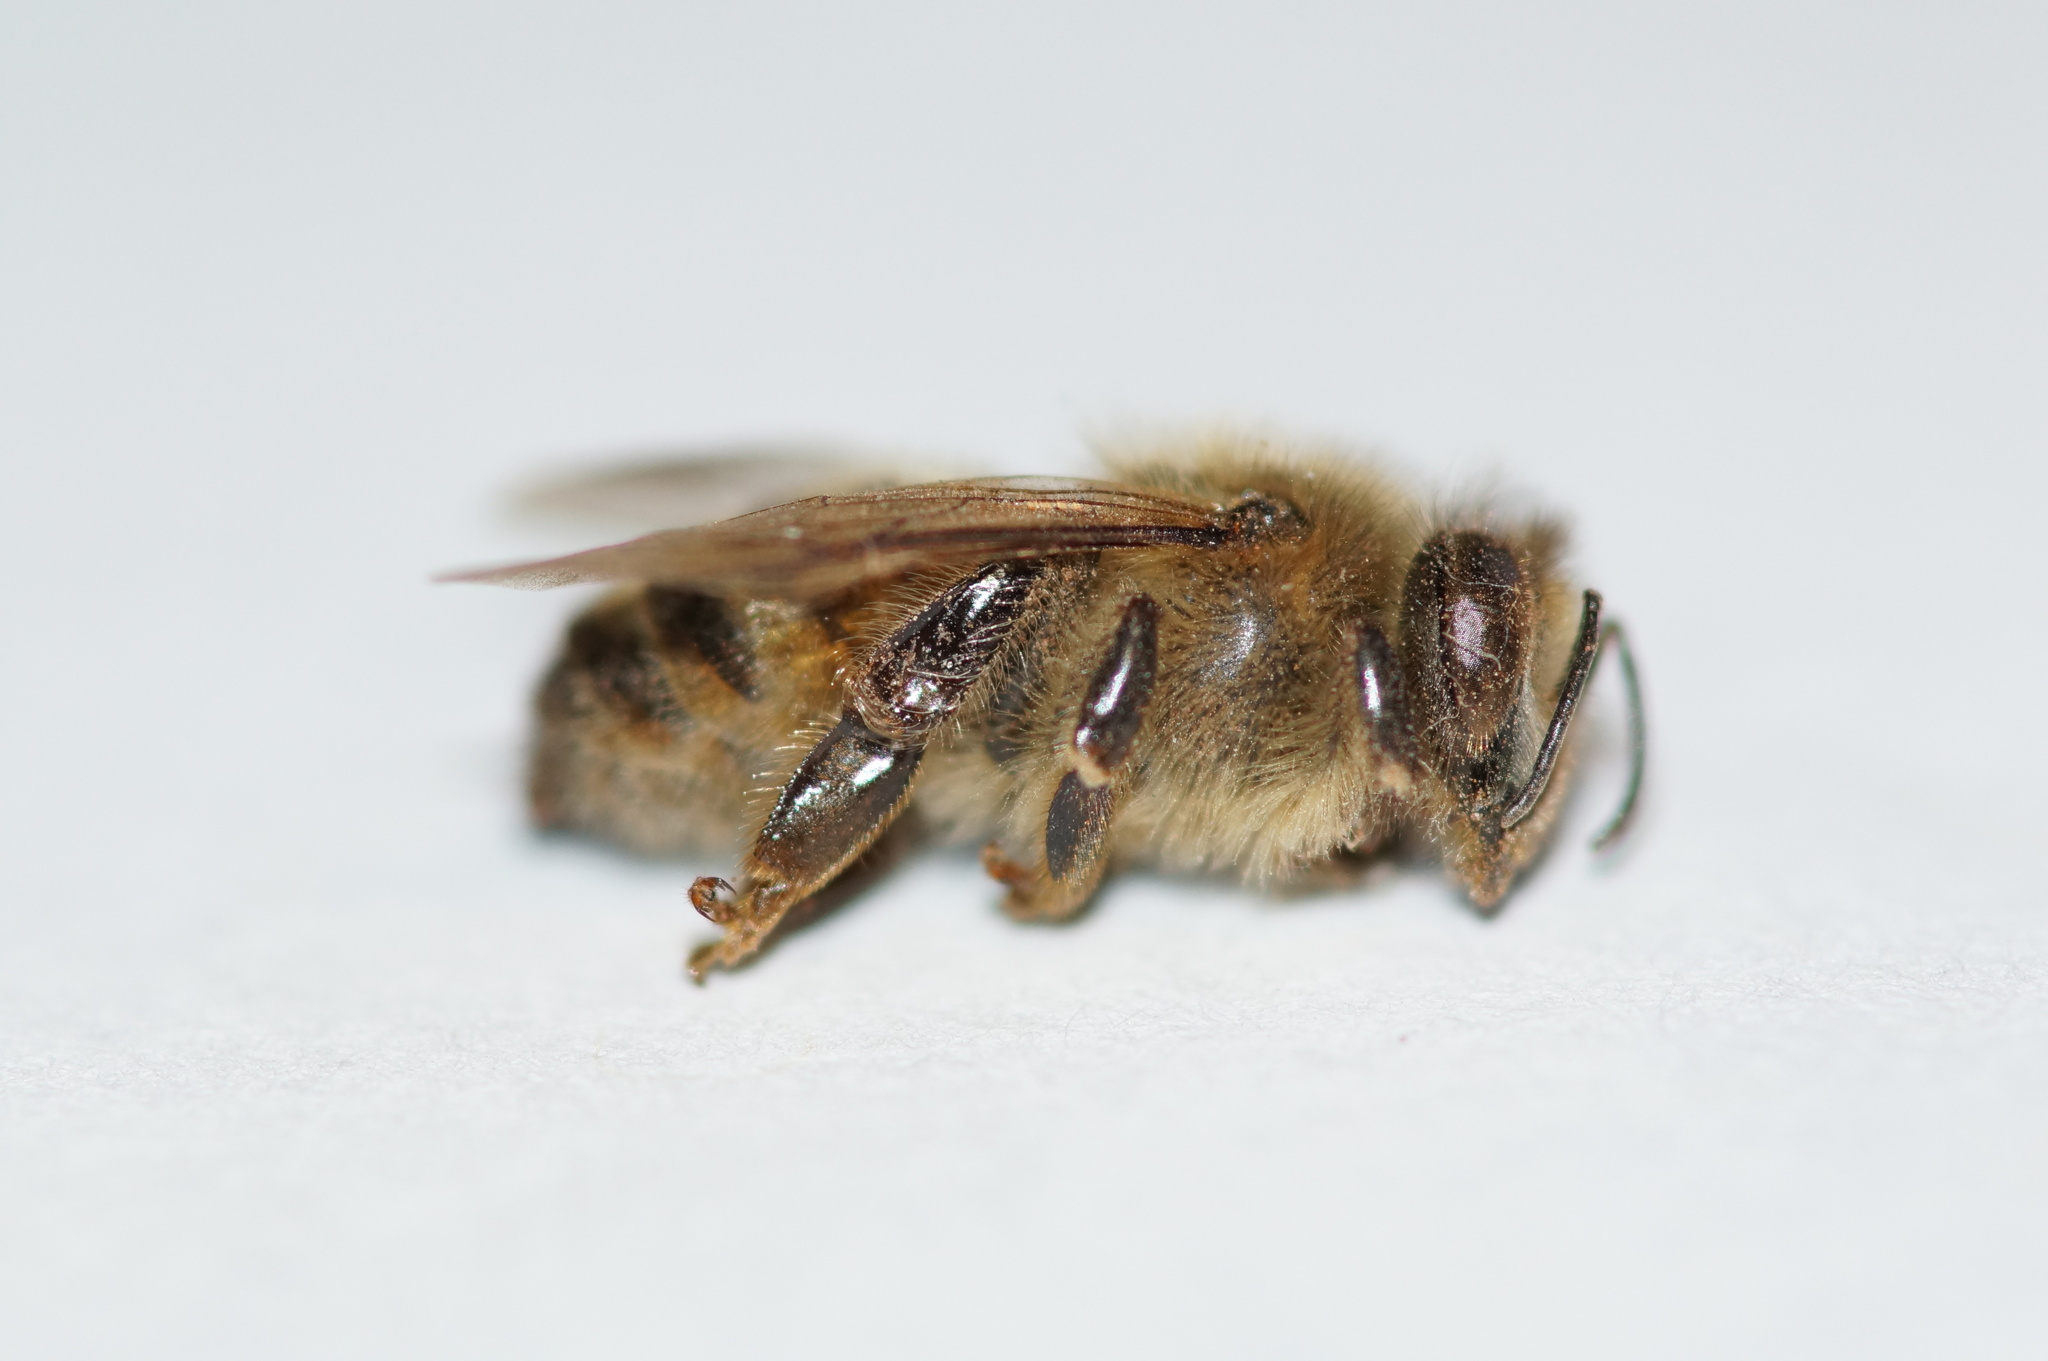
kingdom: Animalia
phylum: Arthropoda
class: Insecta
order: Hymenoptera
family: Apidae
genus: Apis
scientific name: Apis mellifera
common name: Honey bee
